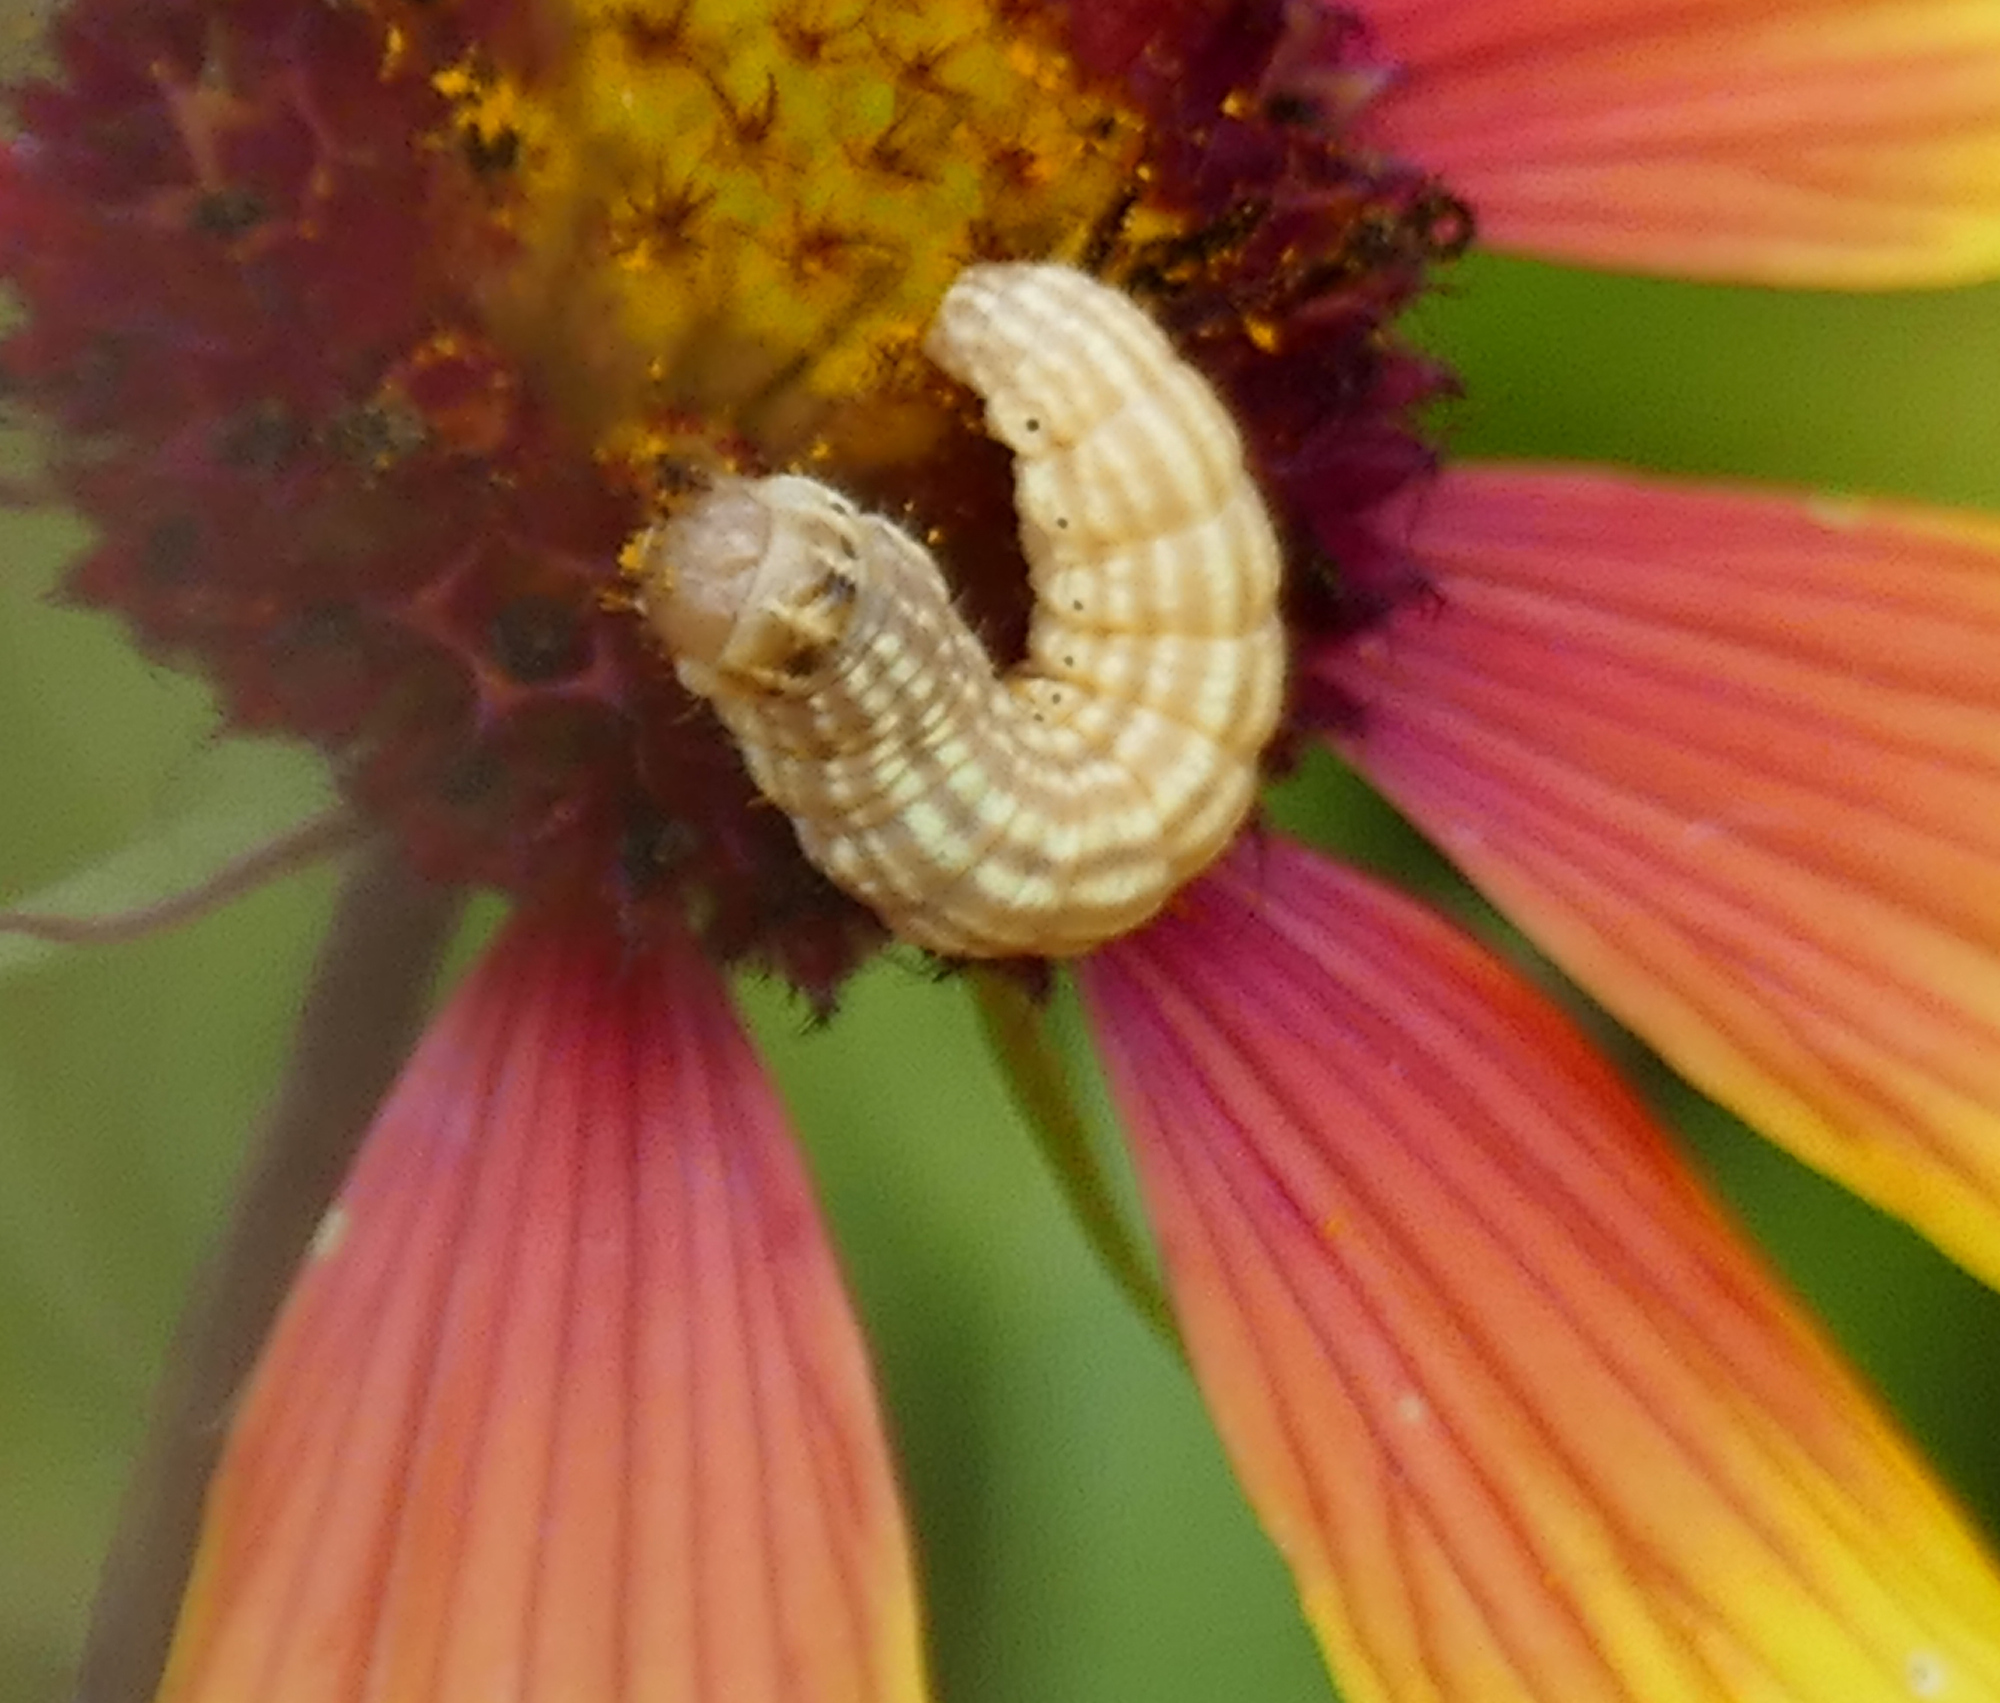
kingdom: Animalia
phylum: Arthropoda
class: Insecta
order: Lepidoptera
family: Noctuidae
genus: Schinia
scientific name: Schinia volupia
